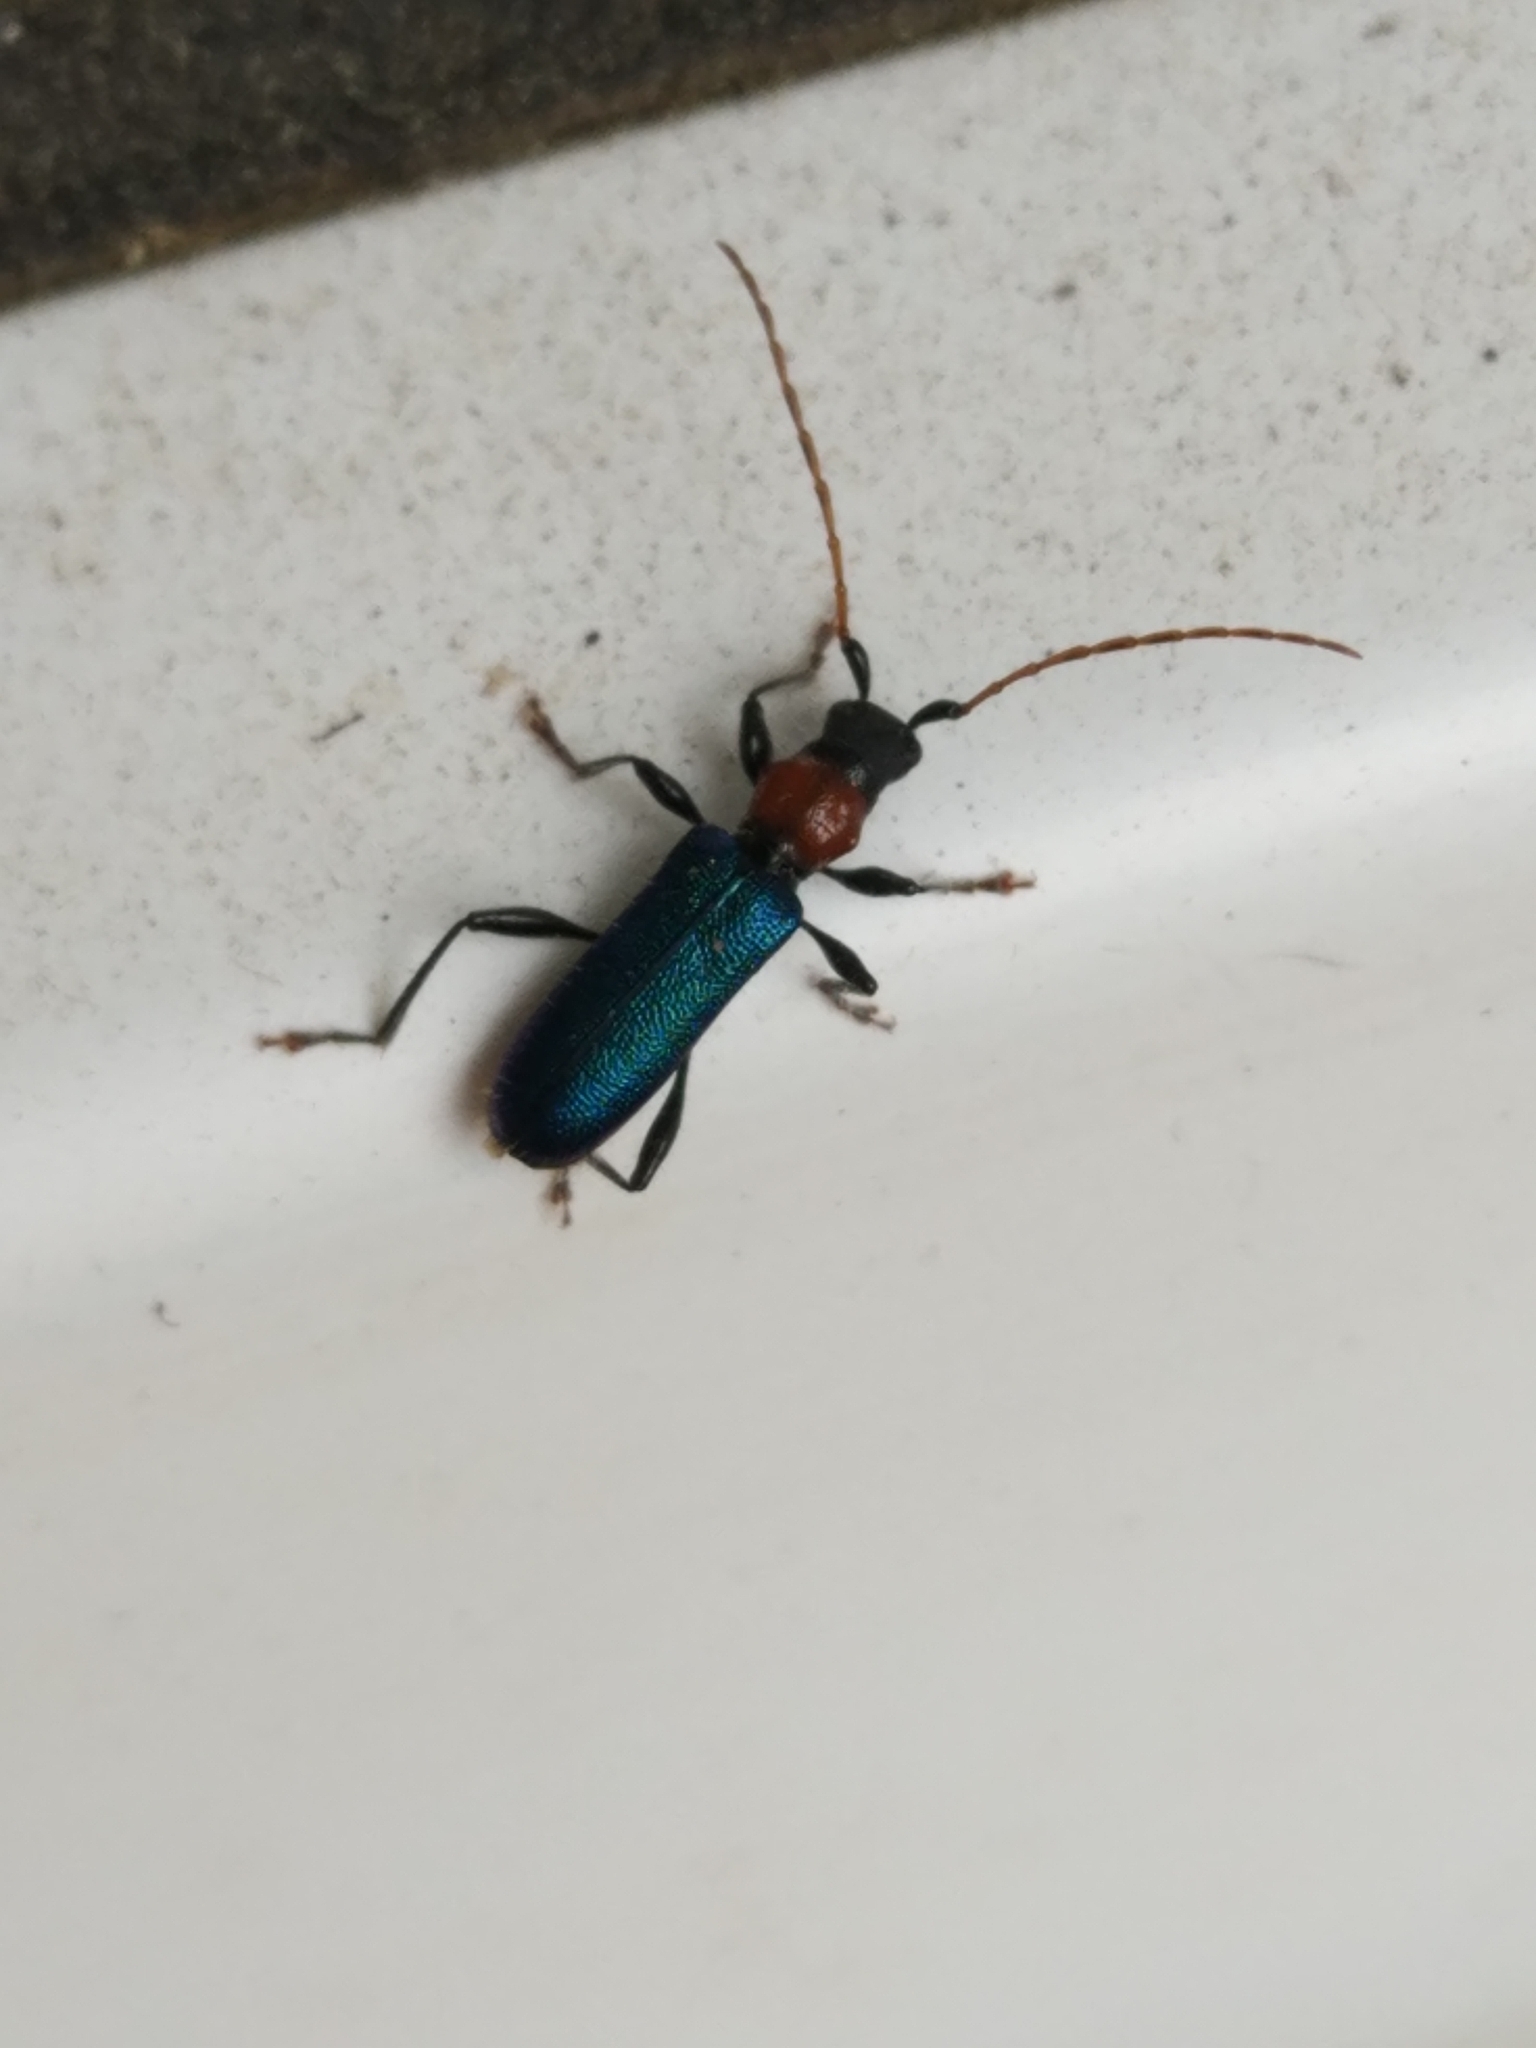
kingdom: Animalia
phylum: Arthropoda
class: Insecta
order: Coleoptera
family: Cerambycidae
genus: Certallum
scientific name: Certallum ebulinum
